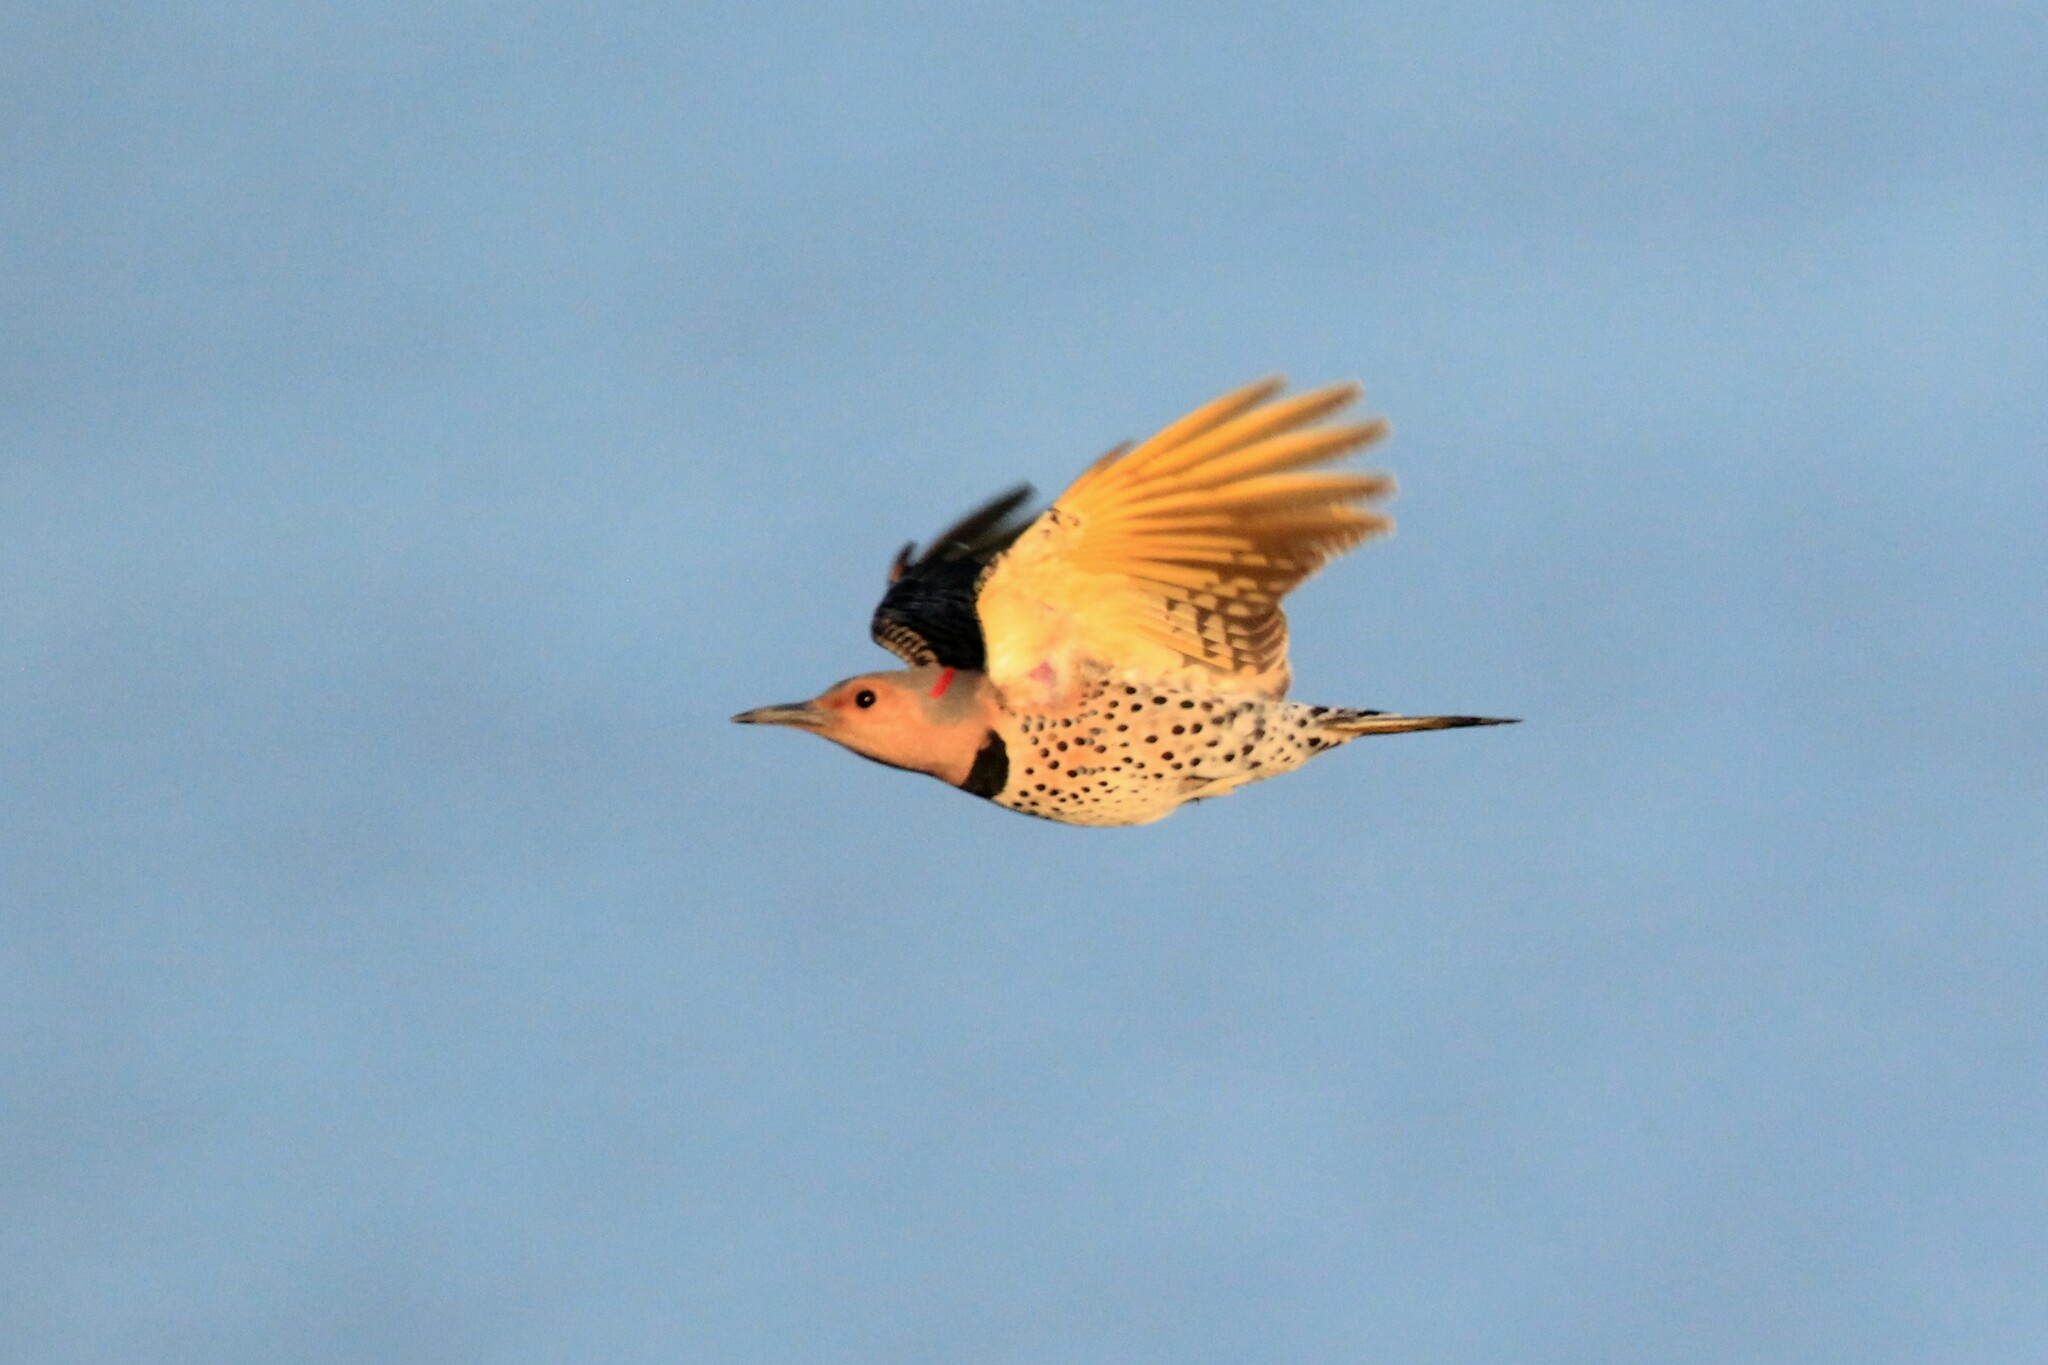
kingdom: Animalia
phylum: Chordata
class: Aves
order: Piciformes
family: Picidae
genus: Colaptes
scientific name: Colaptes auratus
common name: Northern flicker
